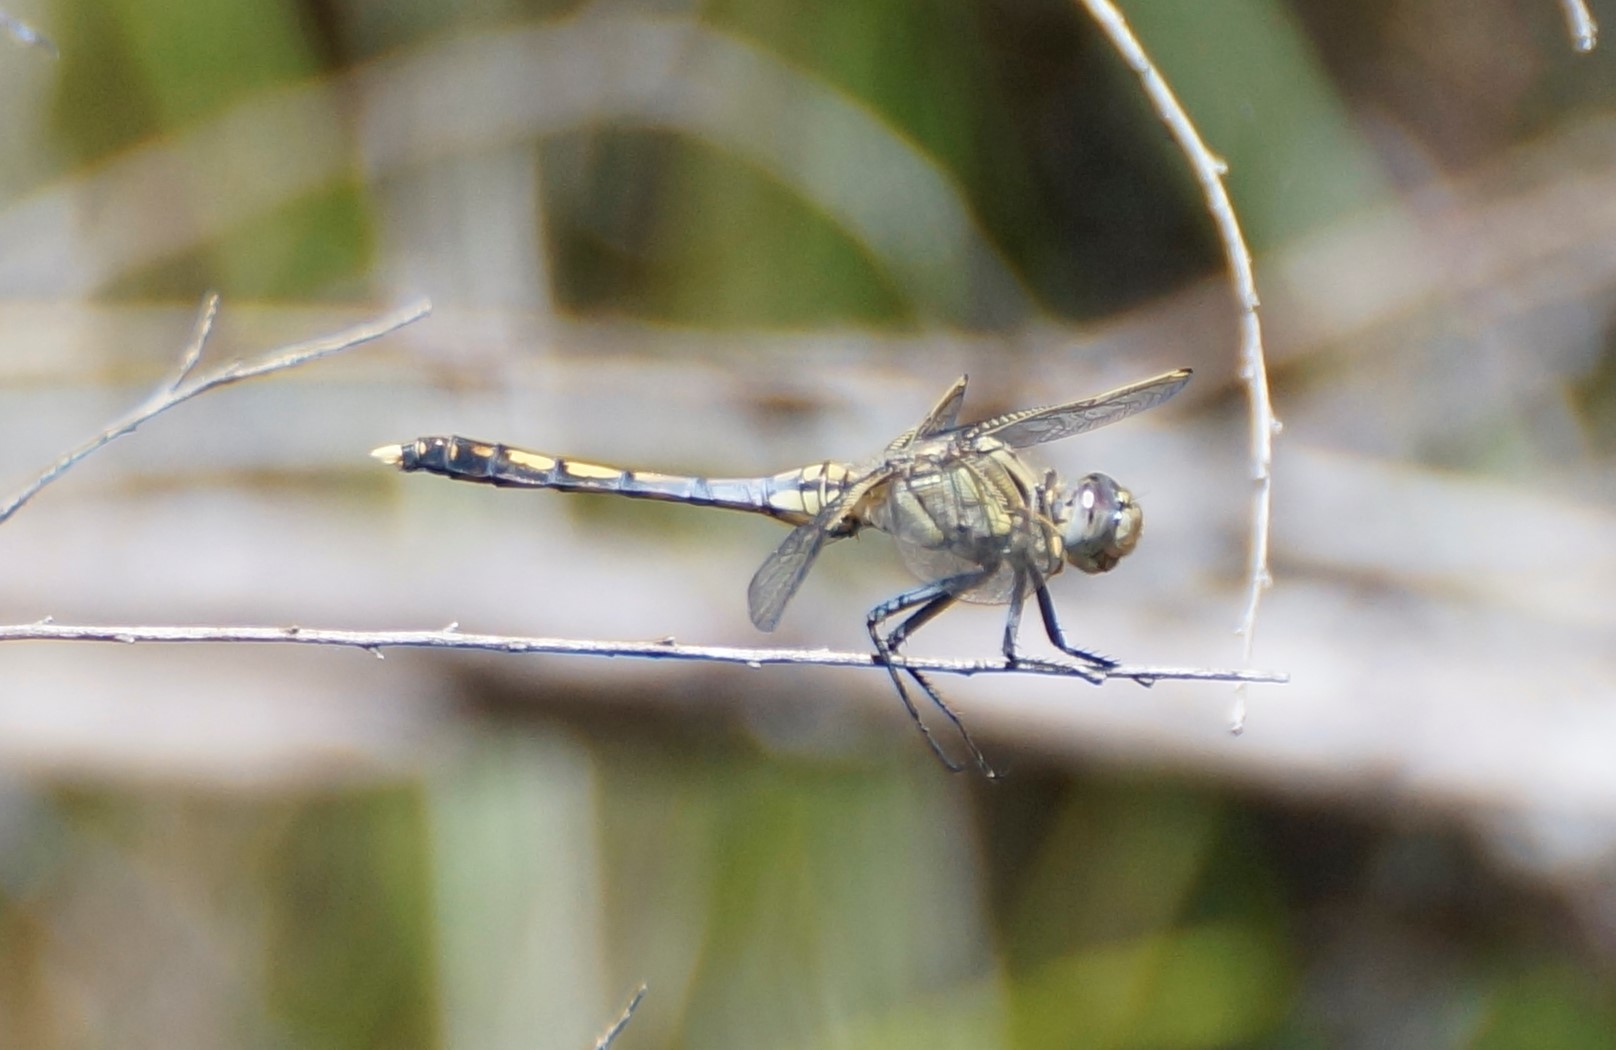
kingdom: Animalia
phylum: Arthropoda
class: Insecta
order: Odonata
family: Libellulidae
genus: Orthetrum
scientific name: Orthetrum caledonicum
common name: Blue skimmer
